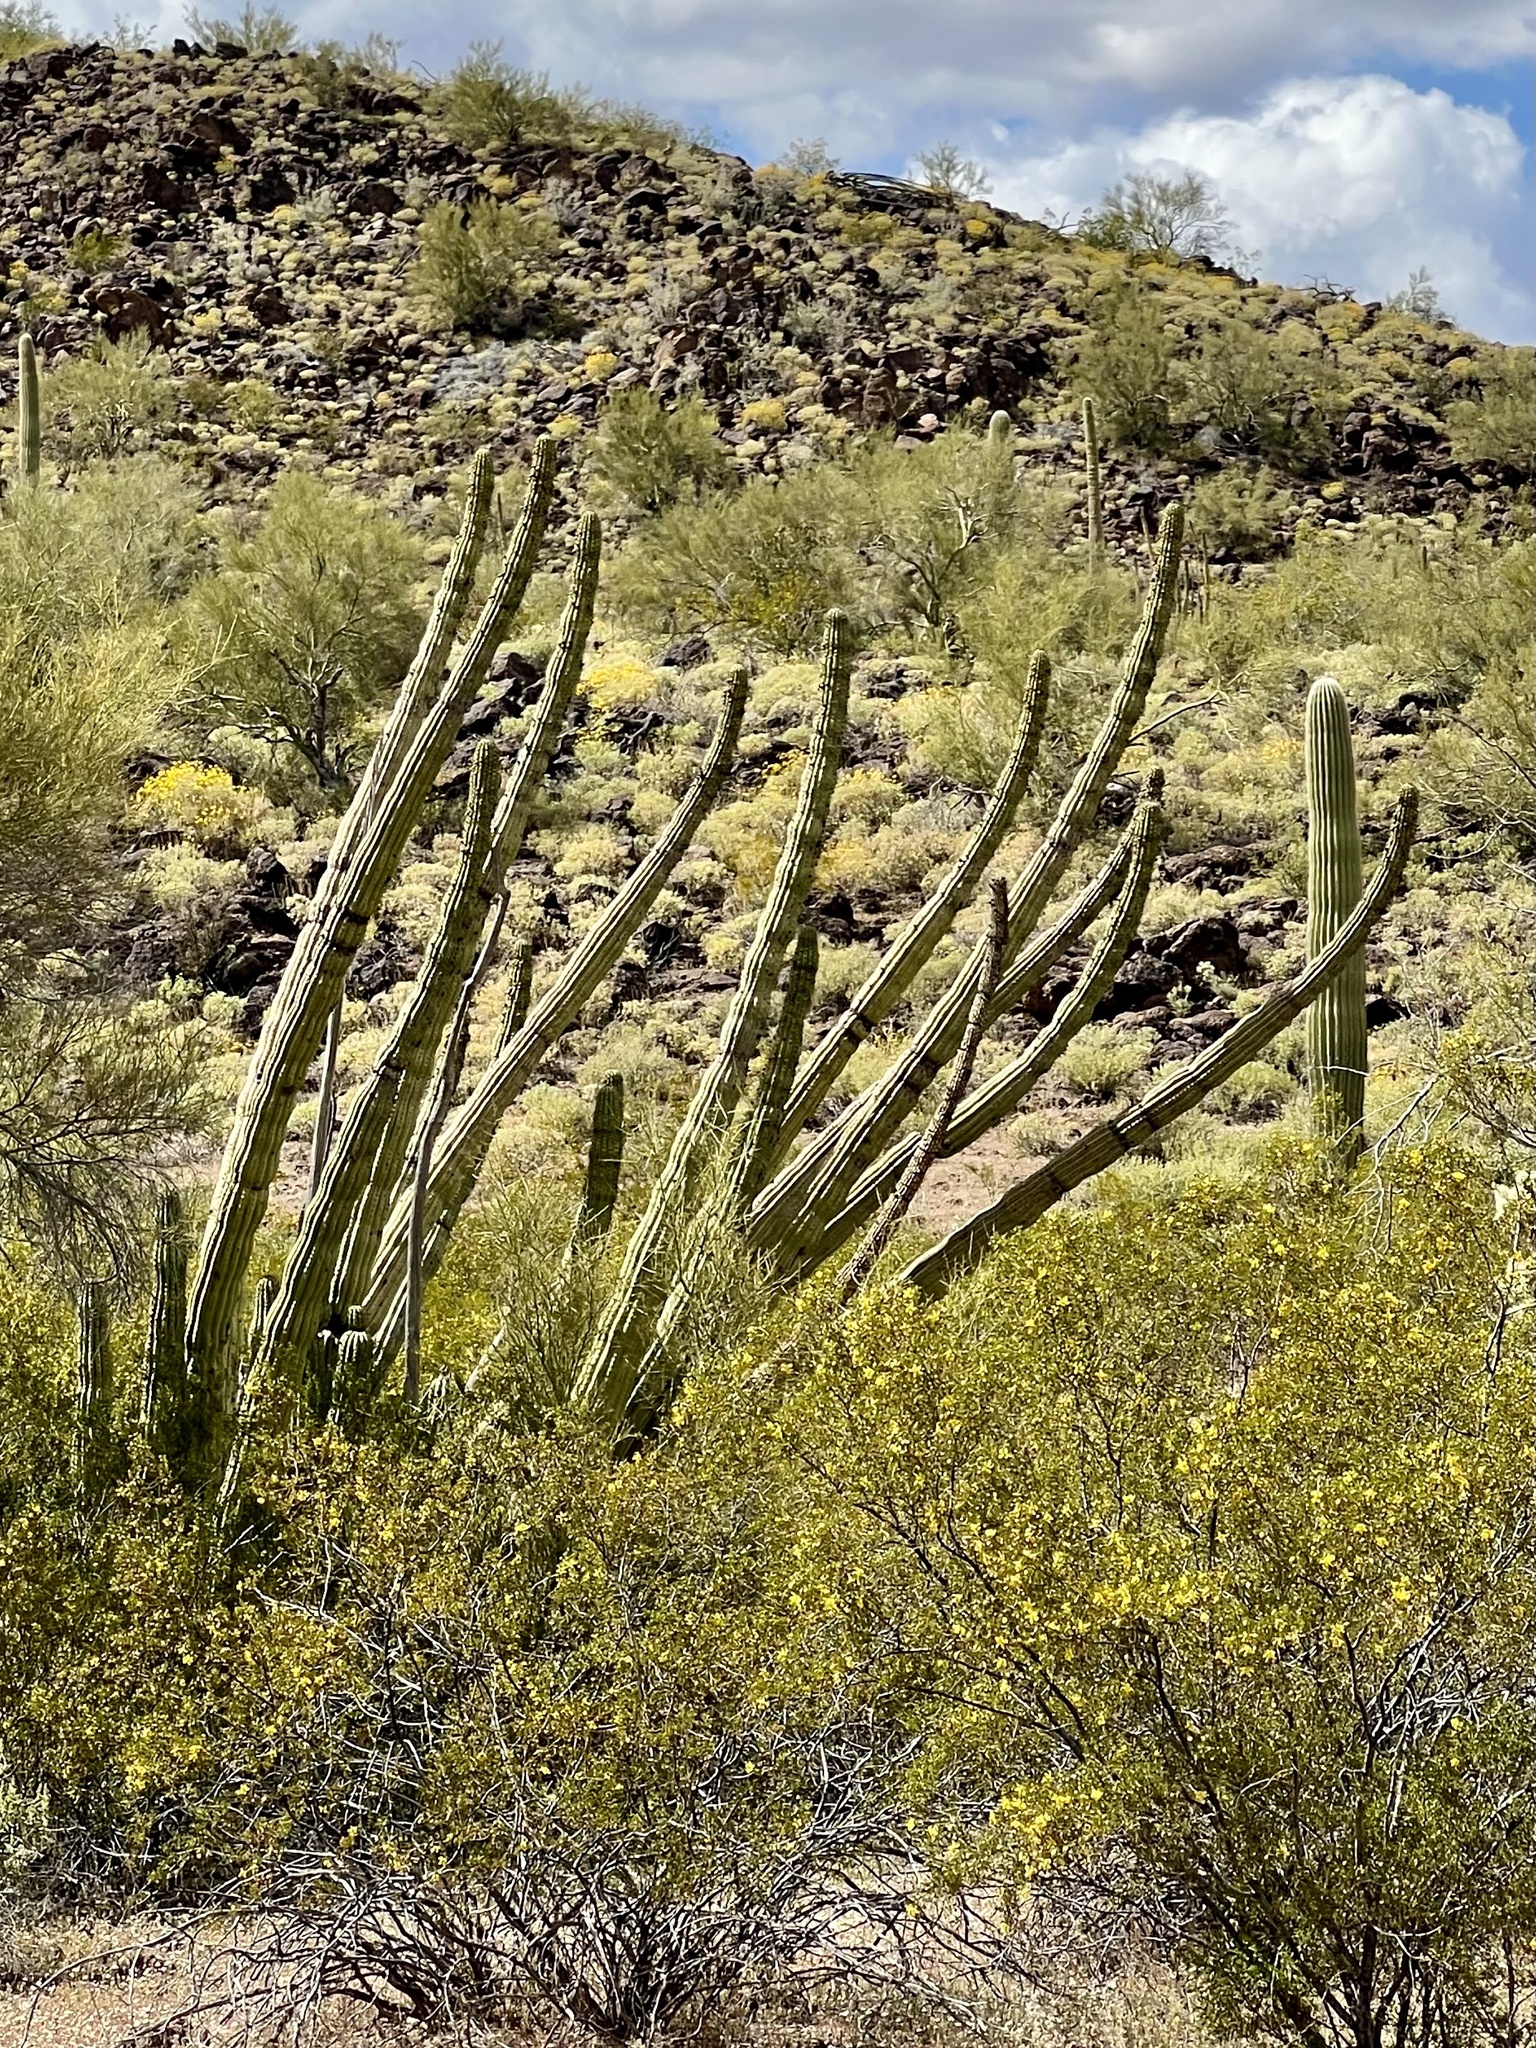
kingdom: Plantae
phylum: Tracheophyta
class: Magnoliopsida
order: Caryophyllales
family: Cactaceae
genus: Stenocereus
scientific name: Stenocereus thurberi
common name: Organ pipe cactus
